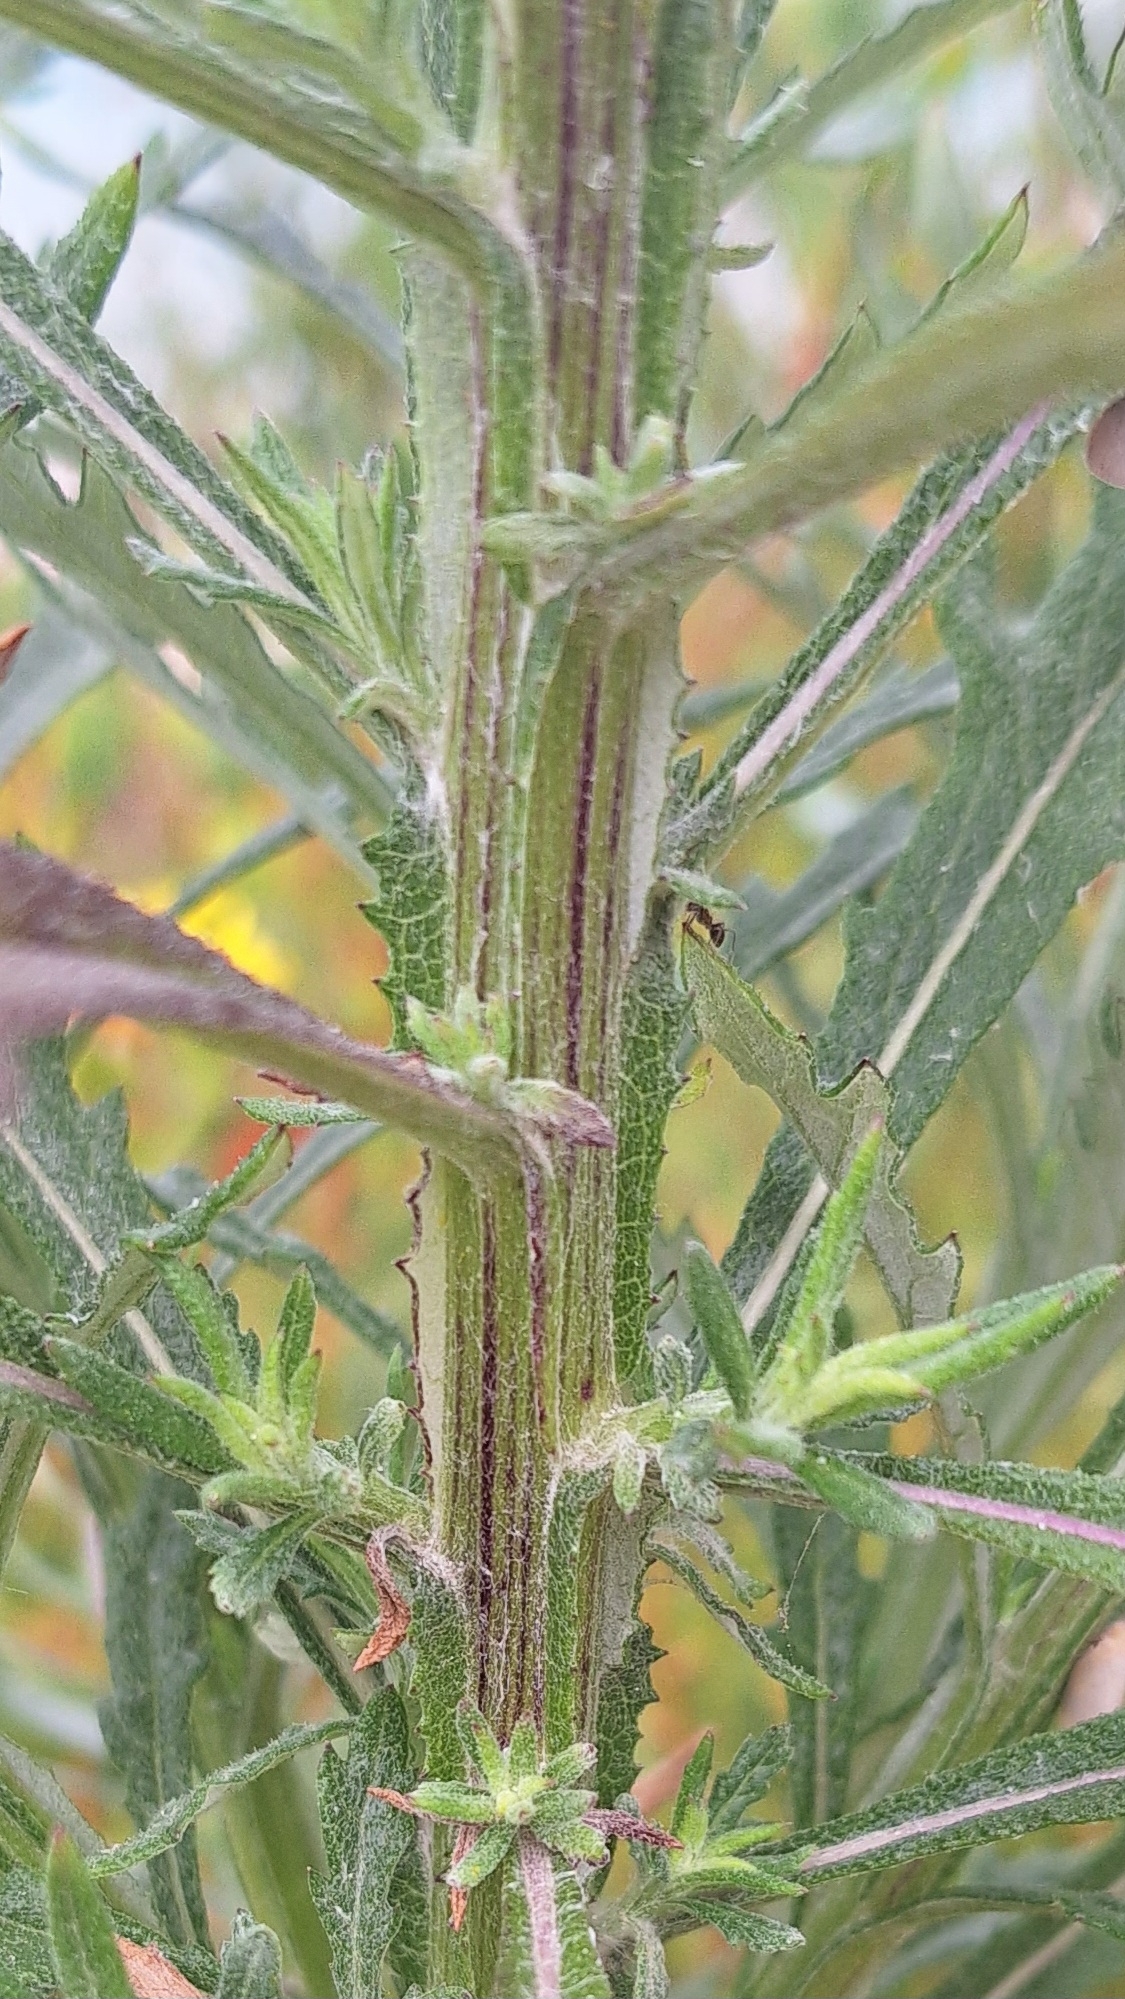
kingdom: Plantae
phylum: Tracheophyta
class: Magnoliopsida
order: Asterales
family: Asteraceae
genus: Senecio
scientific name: Senecio pterophorus
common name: Shoddy ragwort
